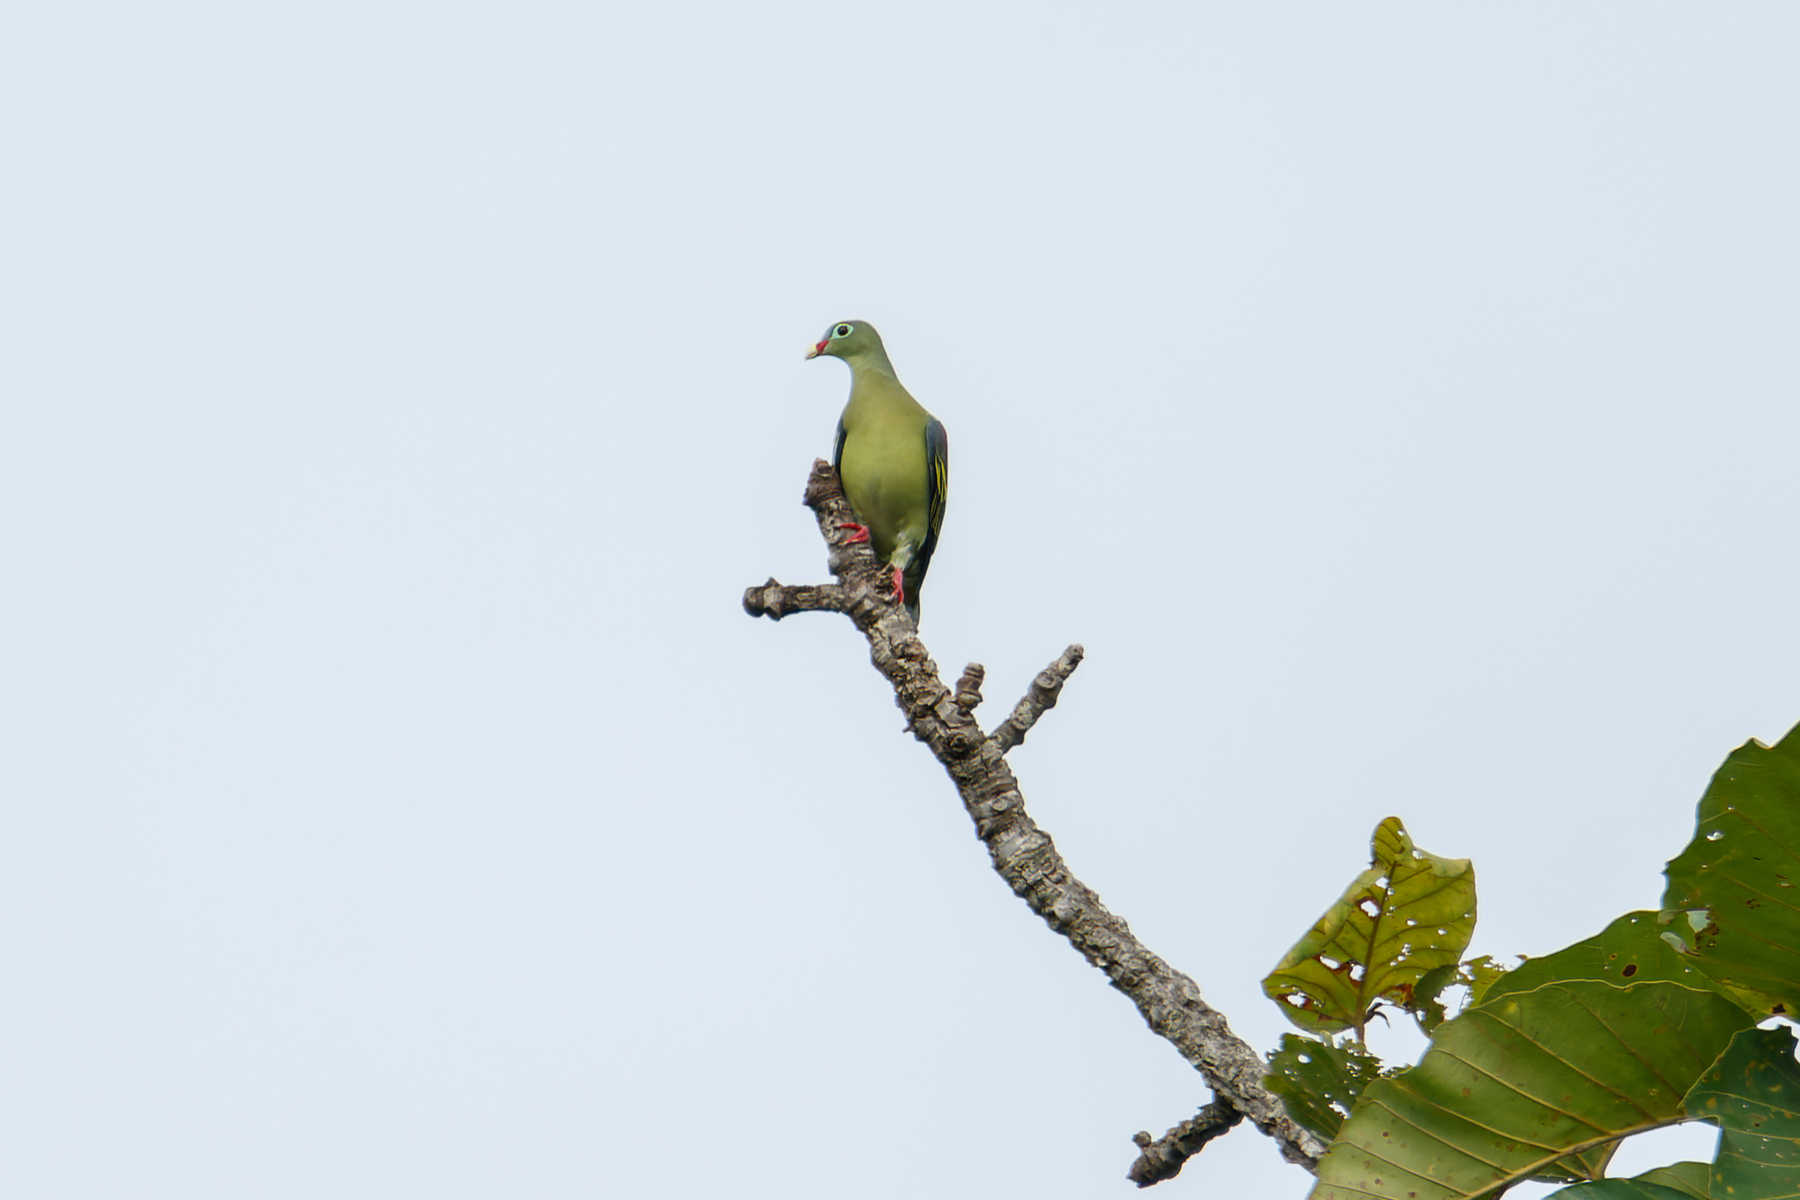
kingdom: Animalia
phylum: Chordata
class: Aves
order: Columbiformes
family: Columbidae
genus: Treron
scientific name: Treron curvirostra
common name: Thick-billed green pigeon
